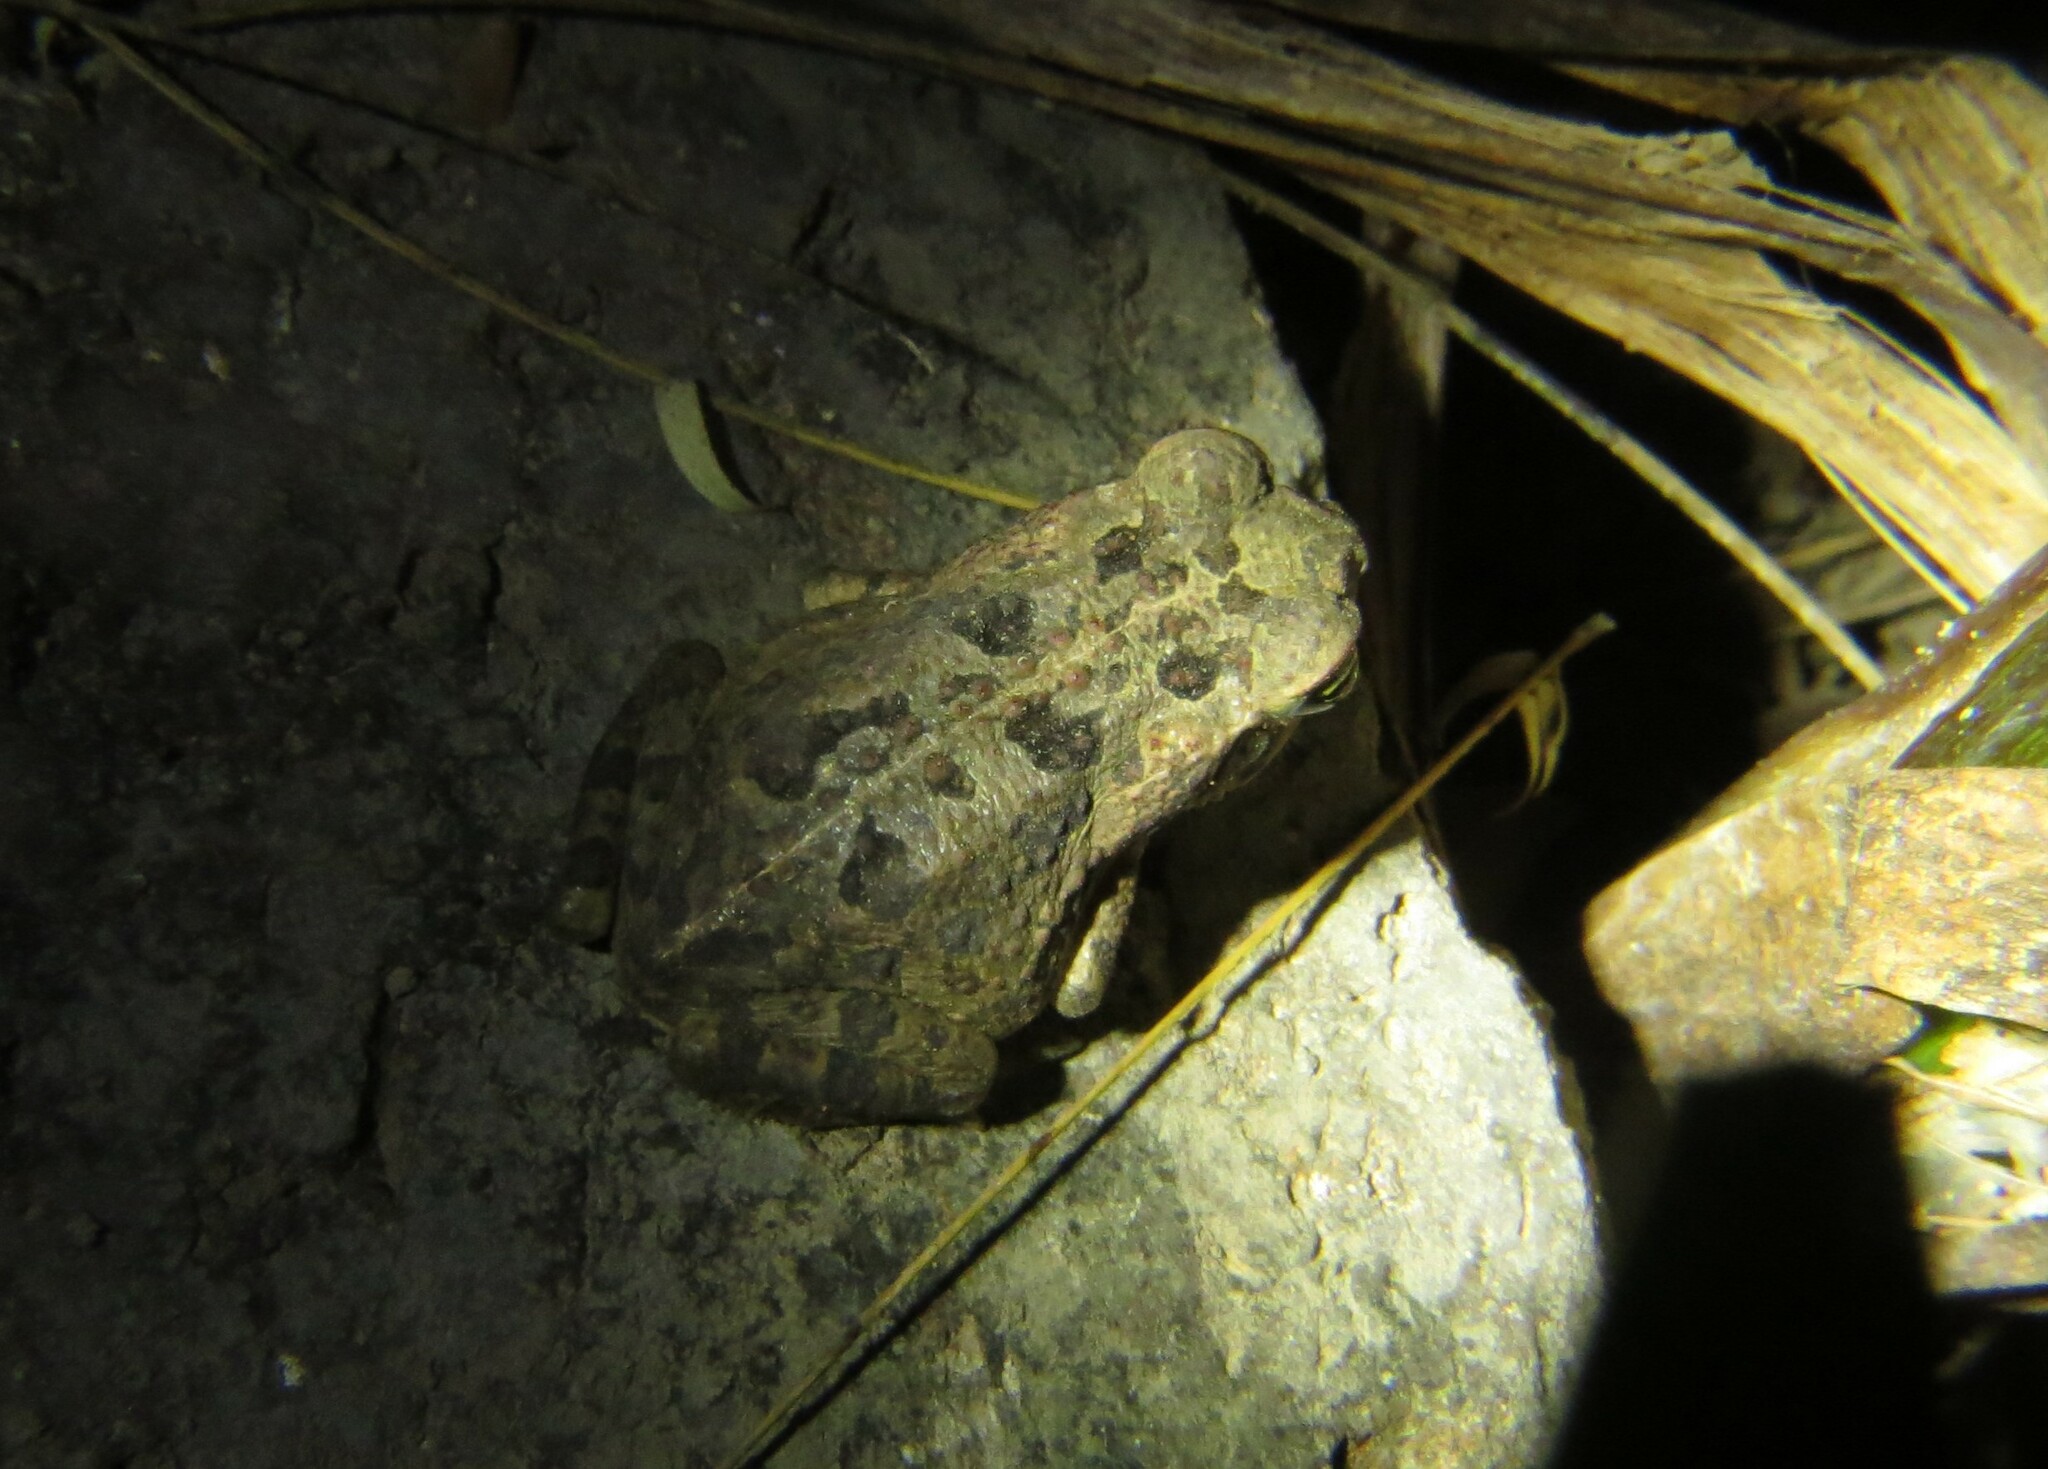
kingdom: Animalia
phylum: Chordata
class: Amphibia
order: Anura
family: Bufonidae
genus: Rhinella
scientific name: Rhinella horribilis
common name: Mesoamerican cane toad
